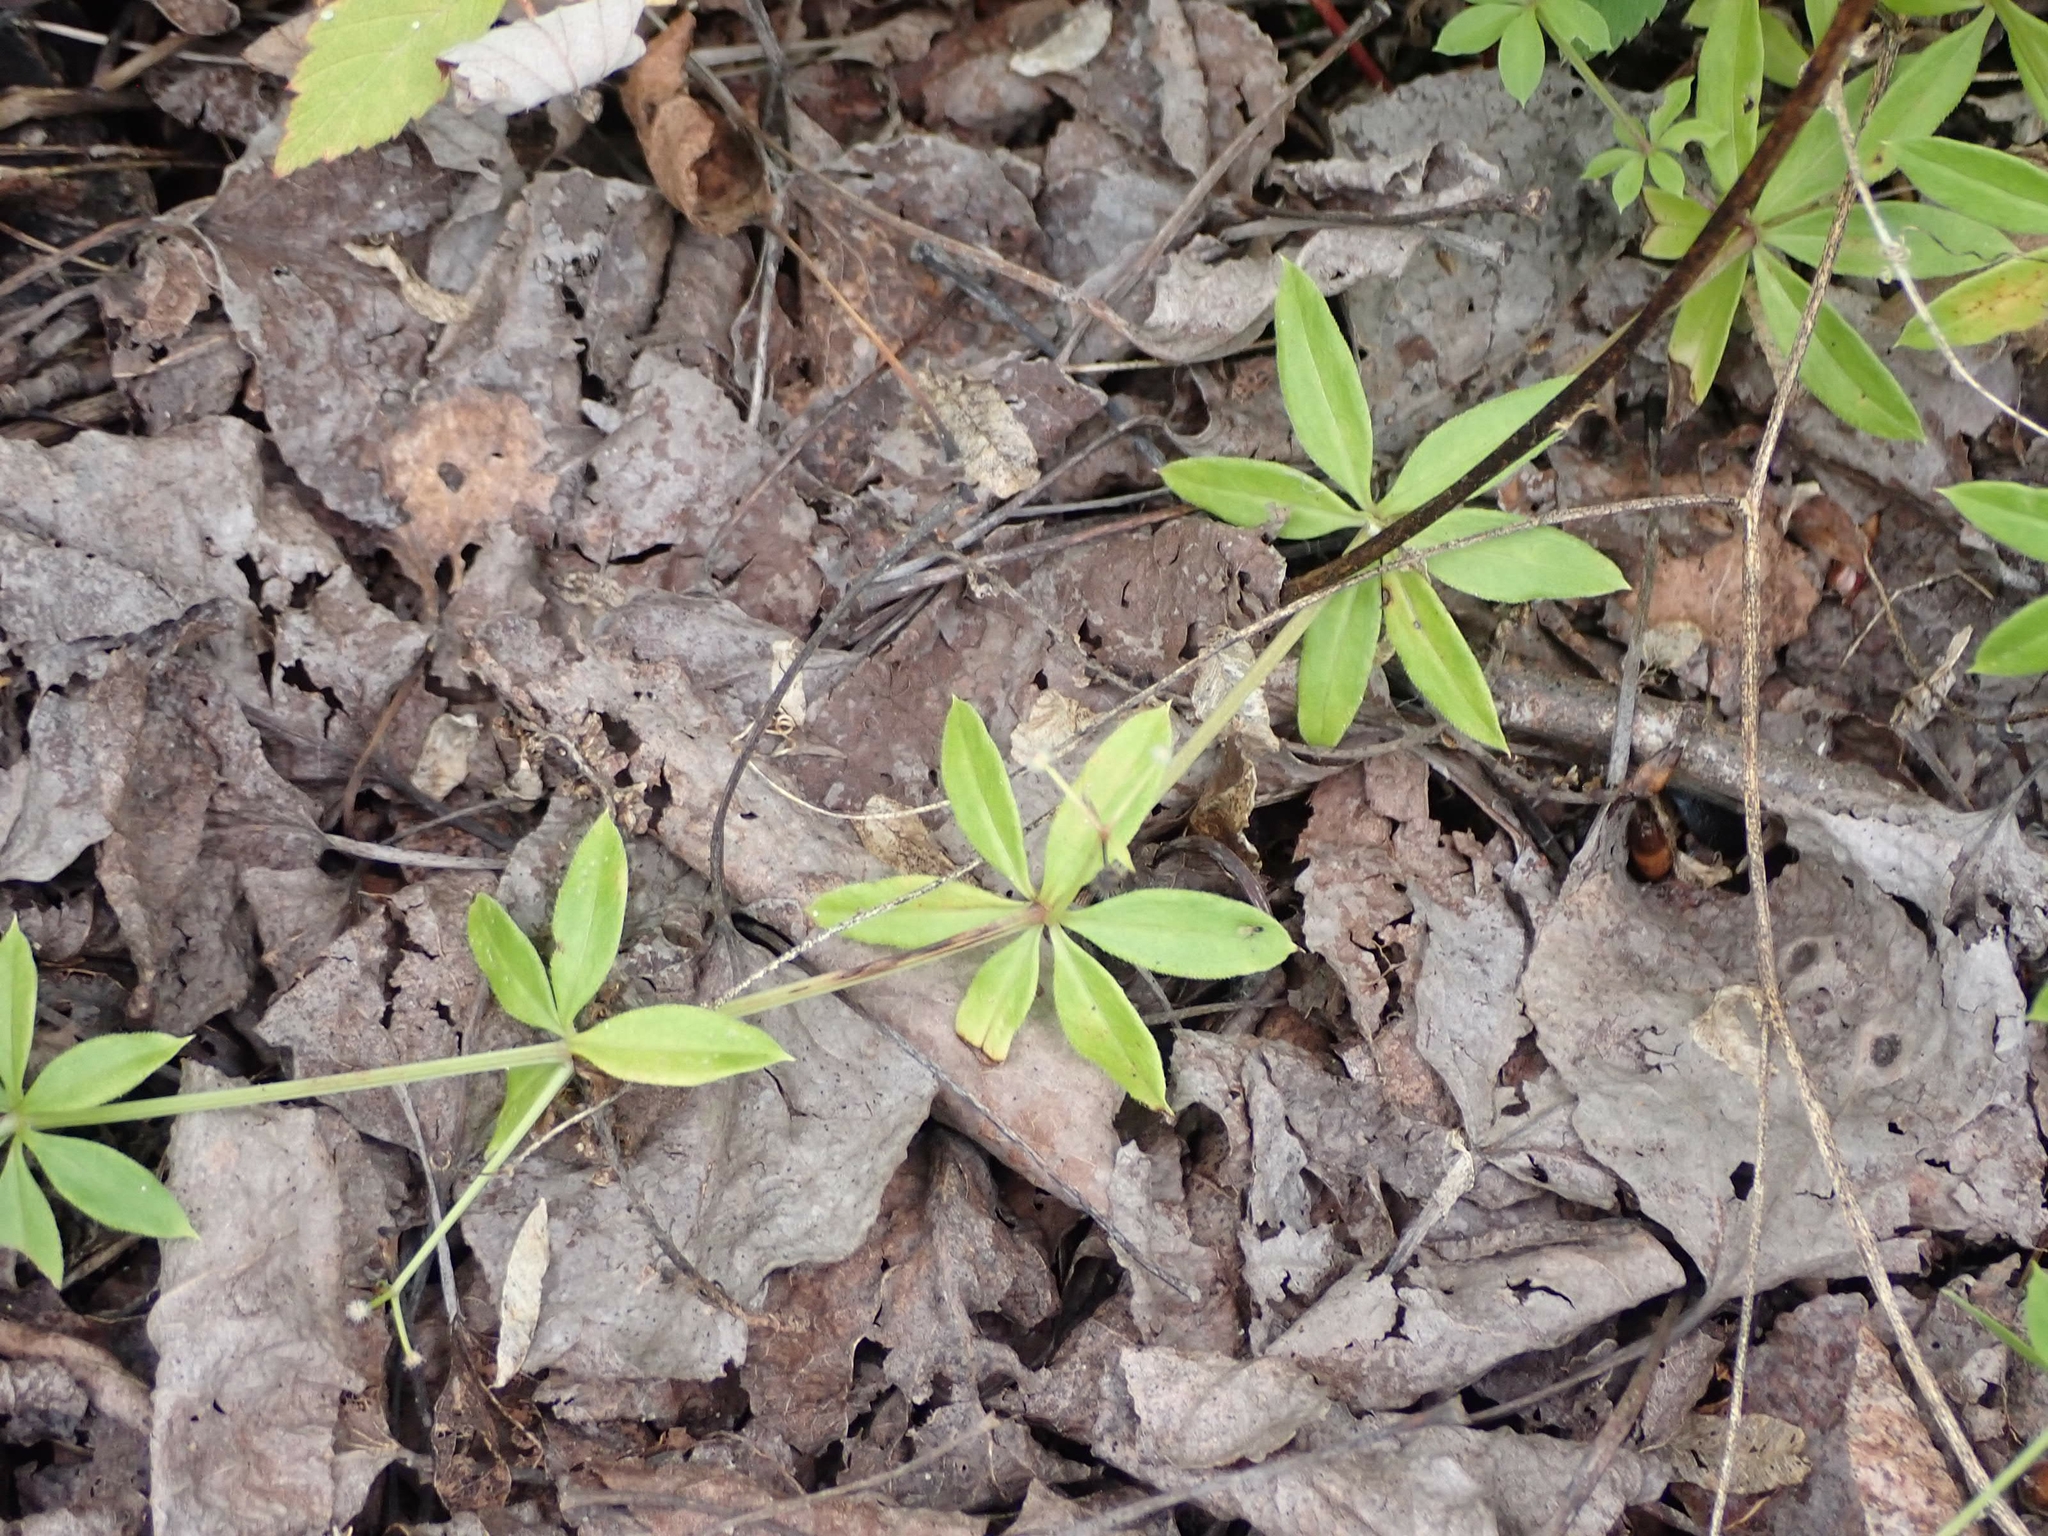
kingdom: Plantae
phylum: Tracheophyta
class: Magnoliopsida
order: Gentianales
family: Rubiaceae
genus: Galium
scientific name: Galium triflorum
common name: Fragrant bedstraw
